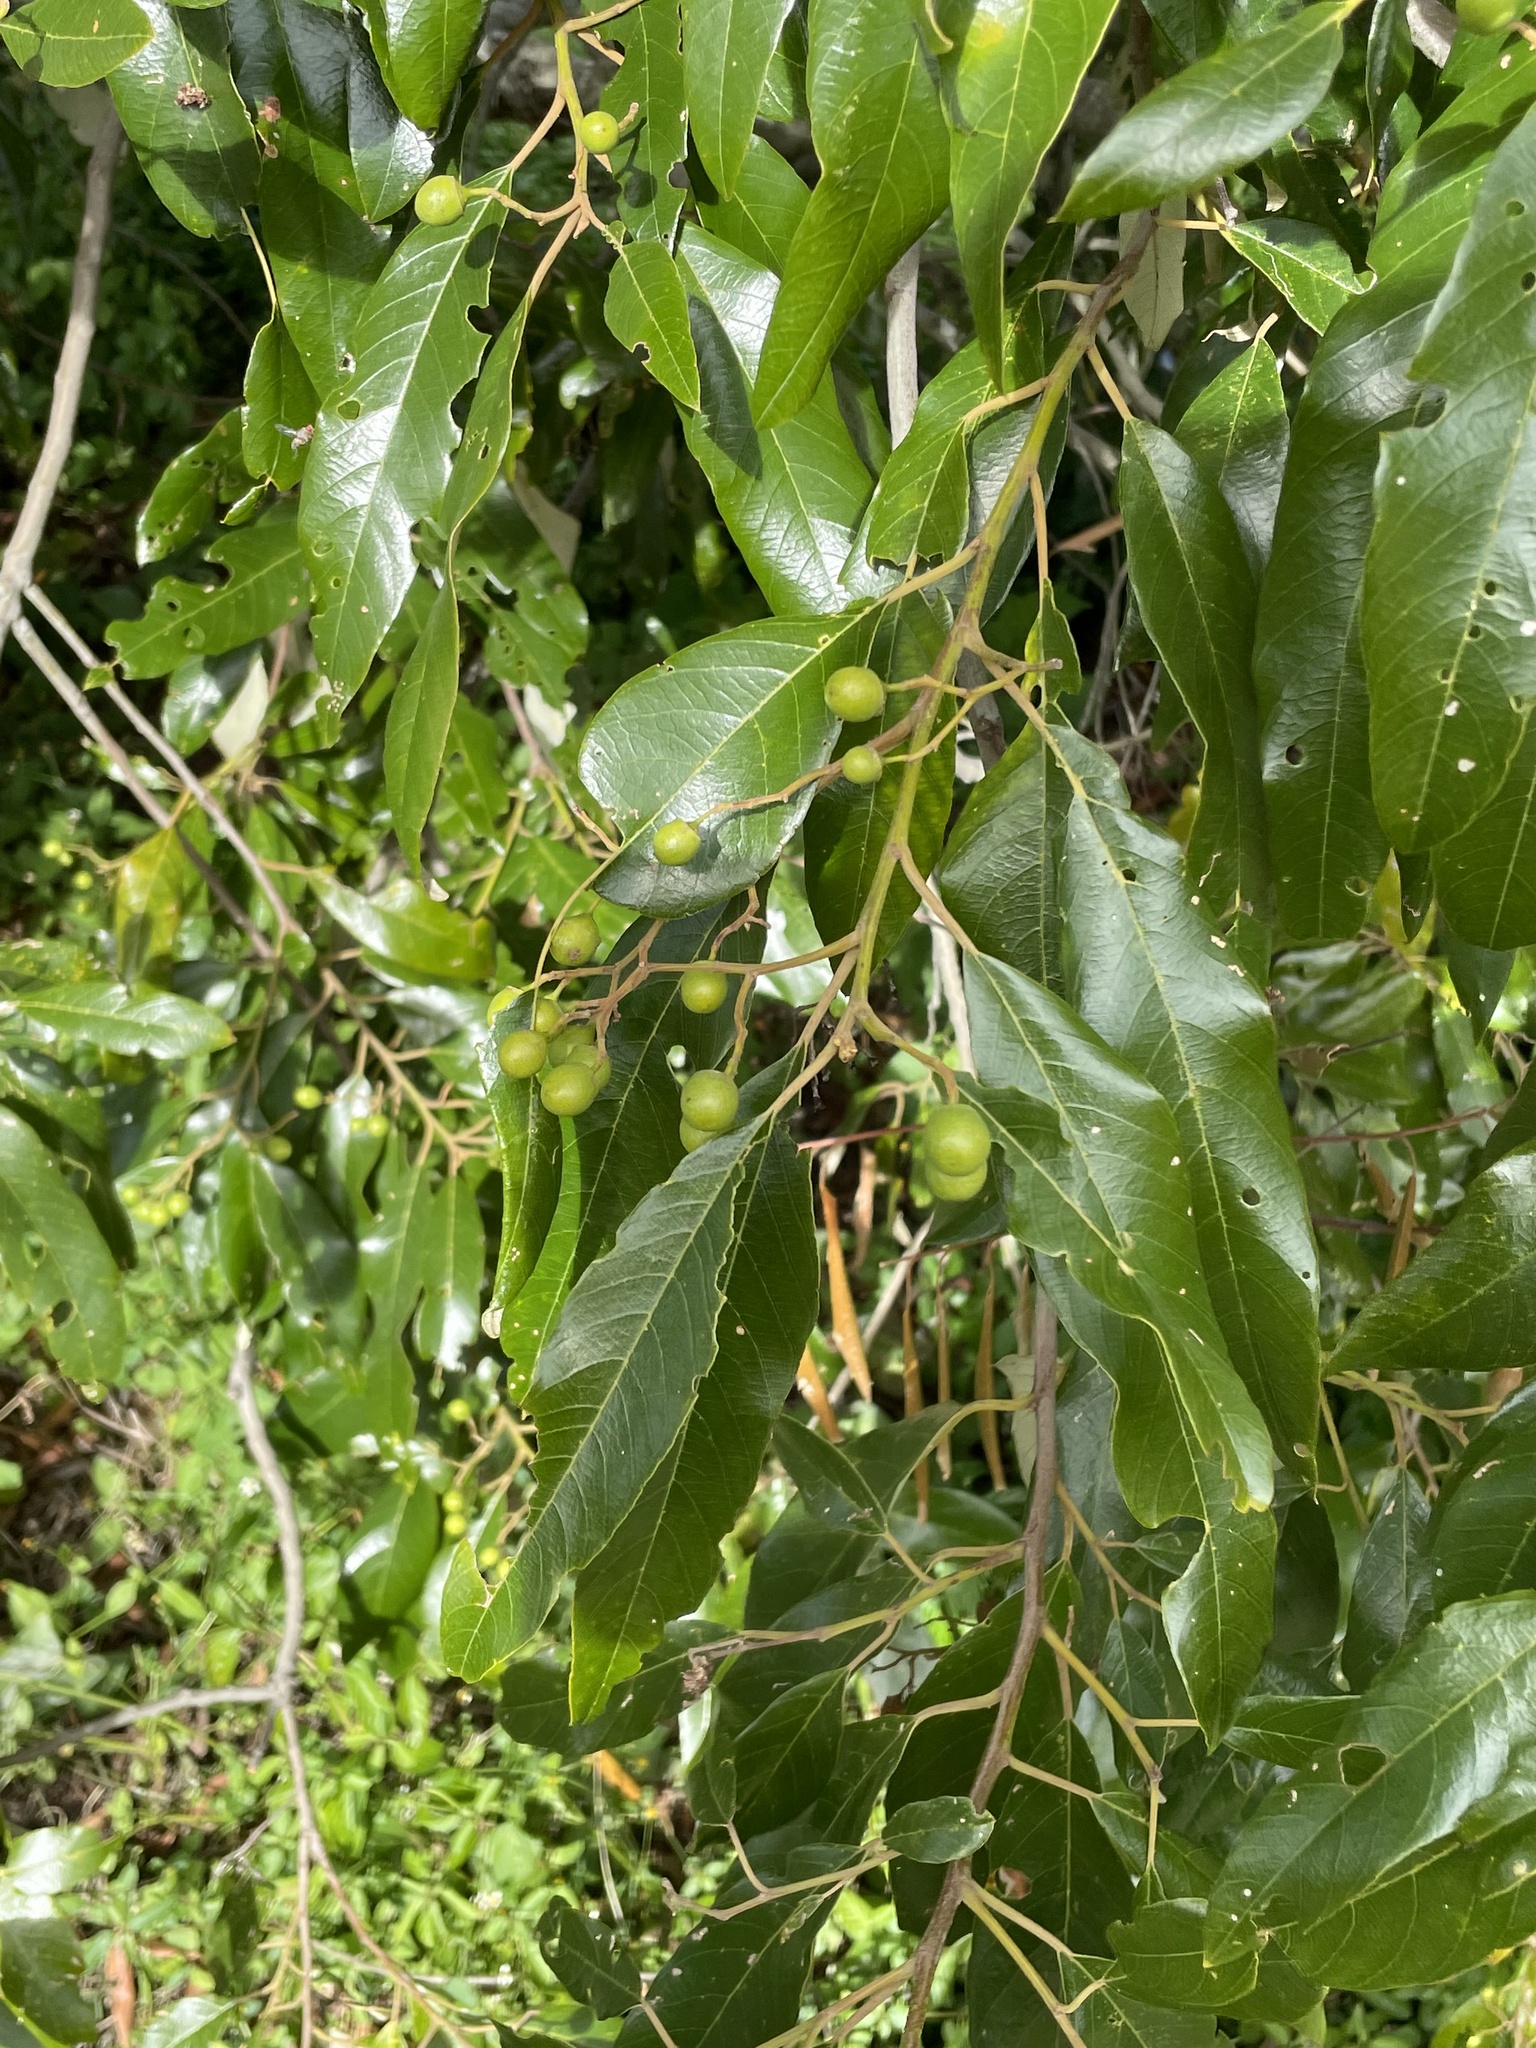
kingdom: Plantae
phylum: Tracheophyta
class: Magnoliopsida
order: Rosales
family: Rhamnaceae
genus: Alphitonia
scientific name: Alphitonia excelsa
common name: Red ash
